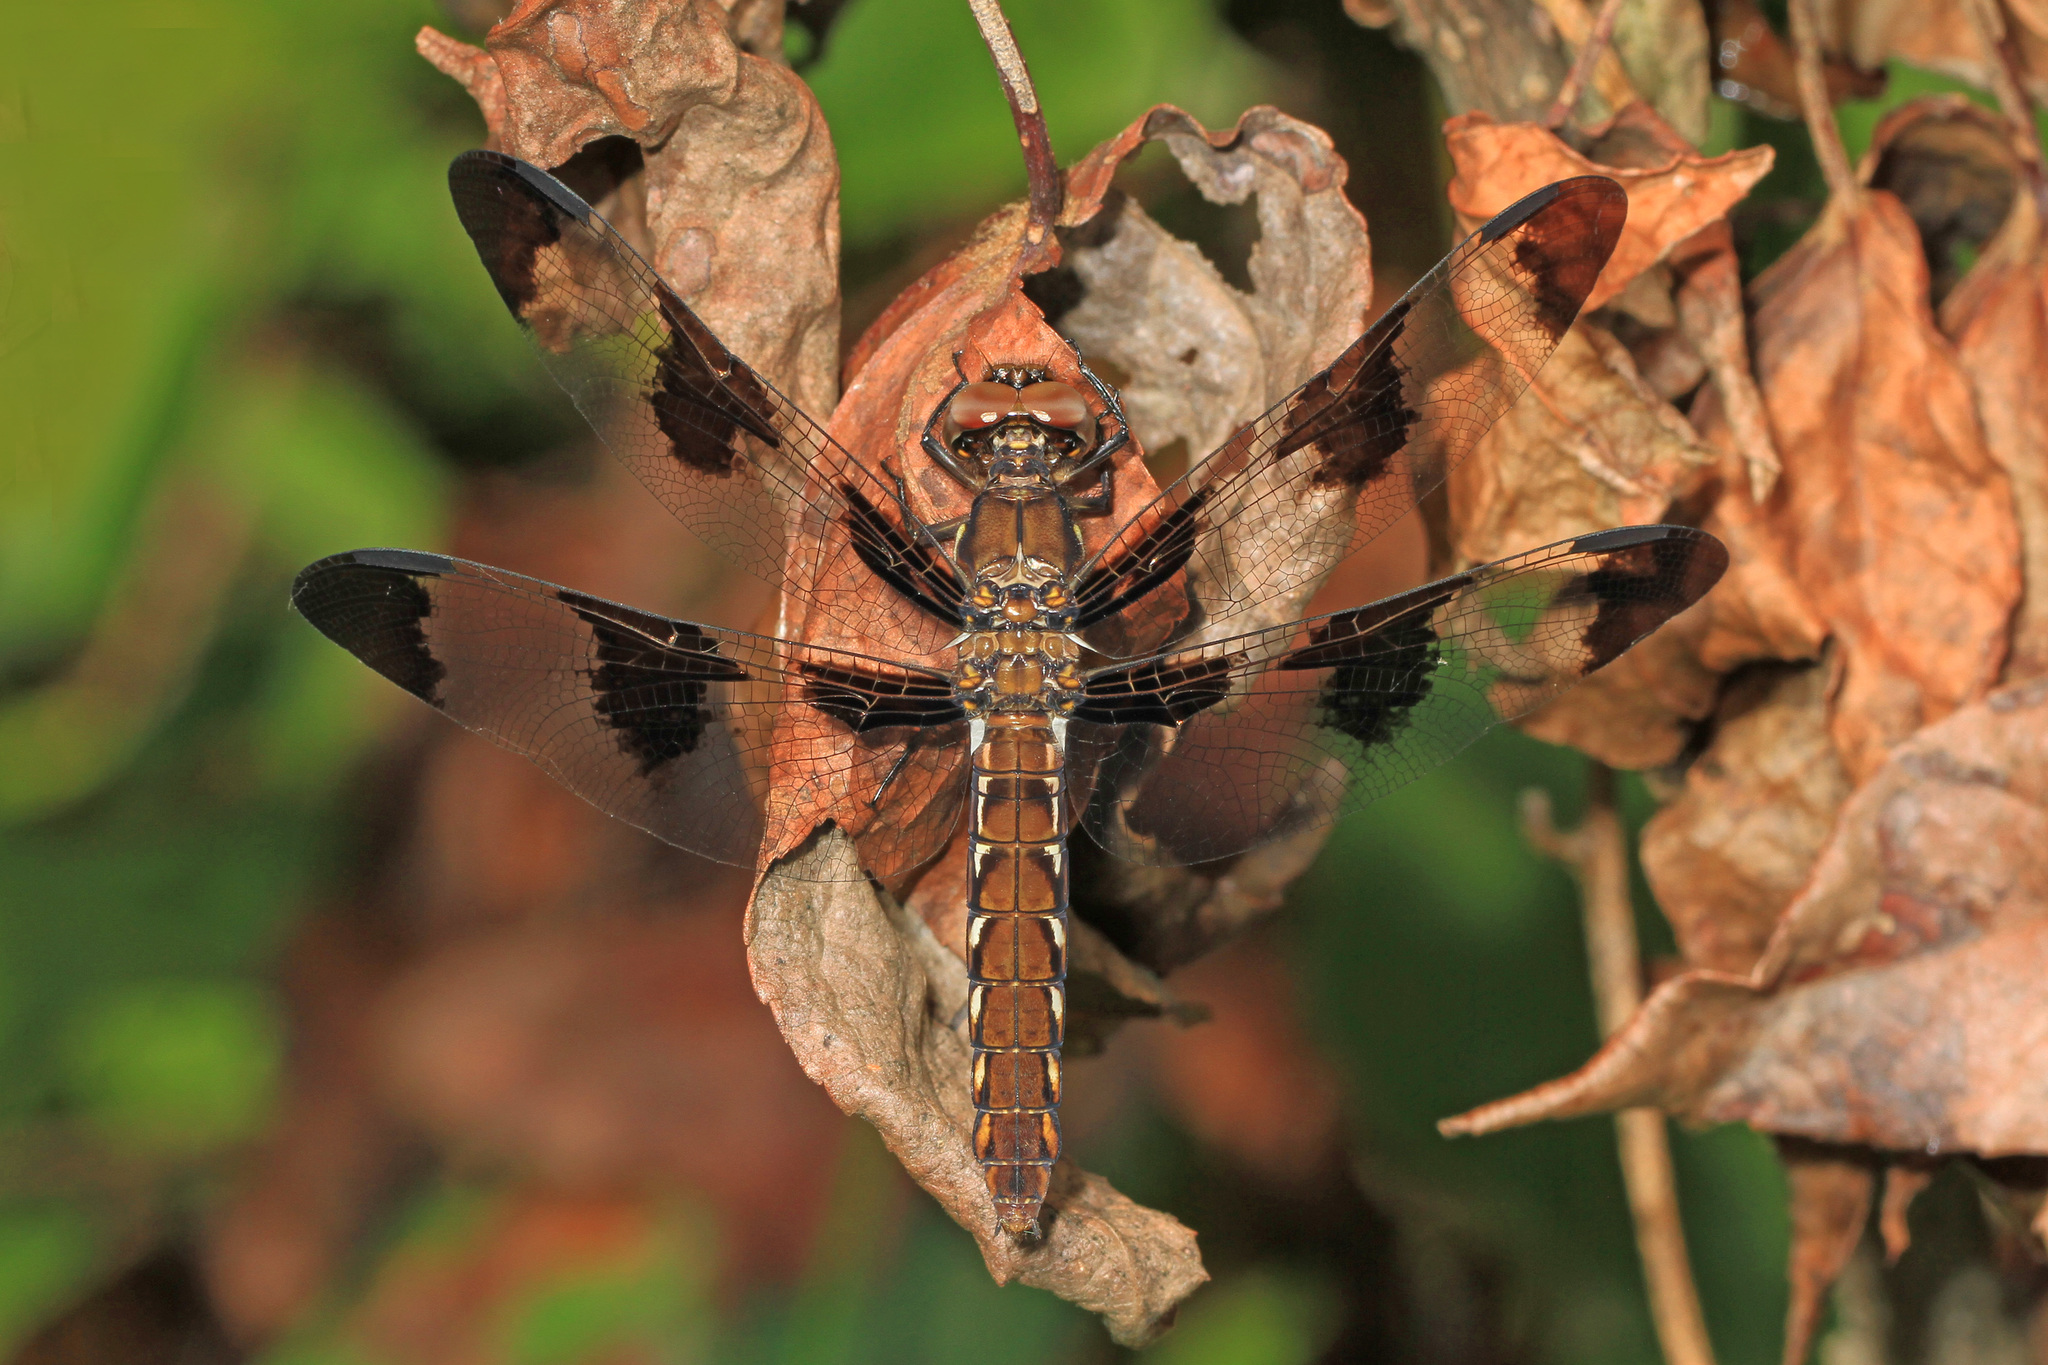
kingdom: Animalia
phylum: Arthropoda
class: Insecta
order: Odonata
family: Libellulidae
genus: Plathemis
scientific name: Plathemis lydia
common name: Common whitetail
